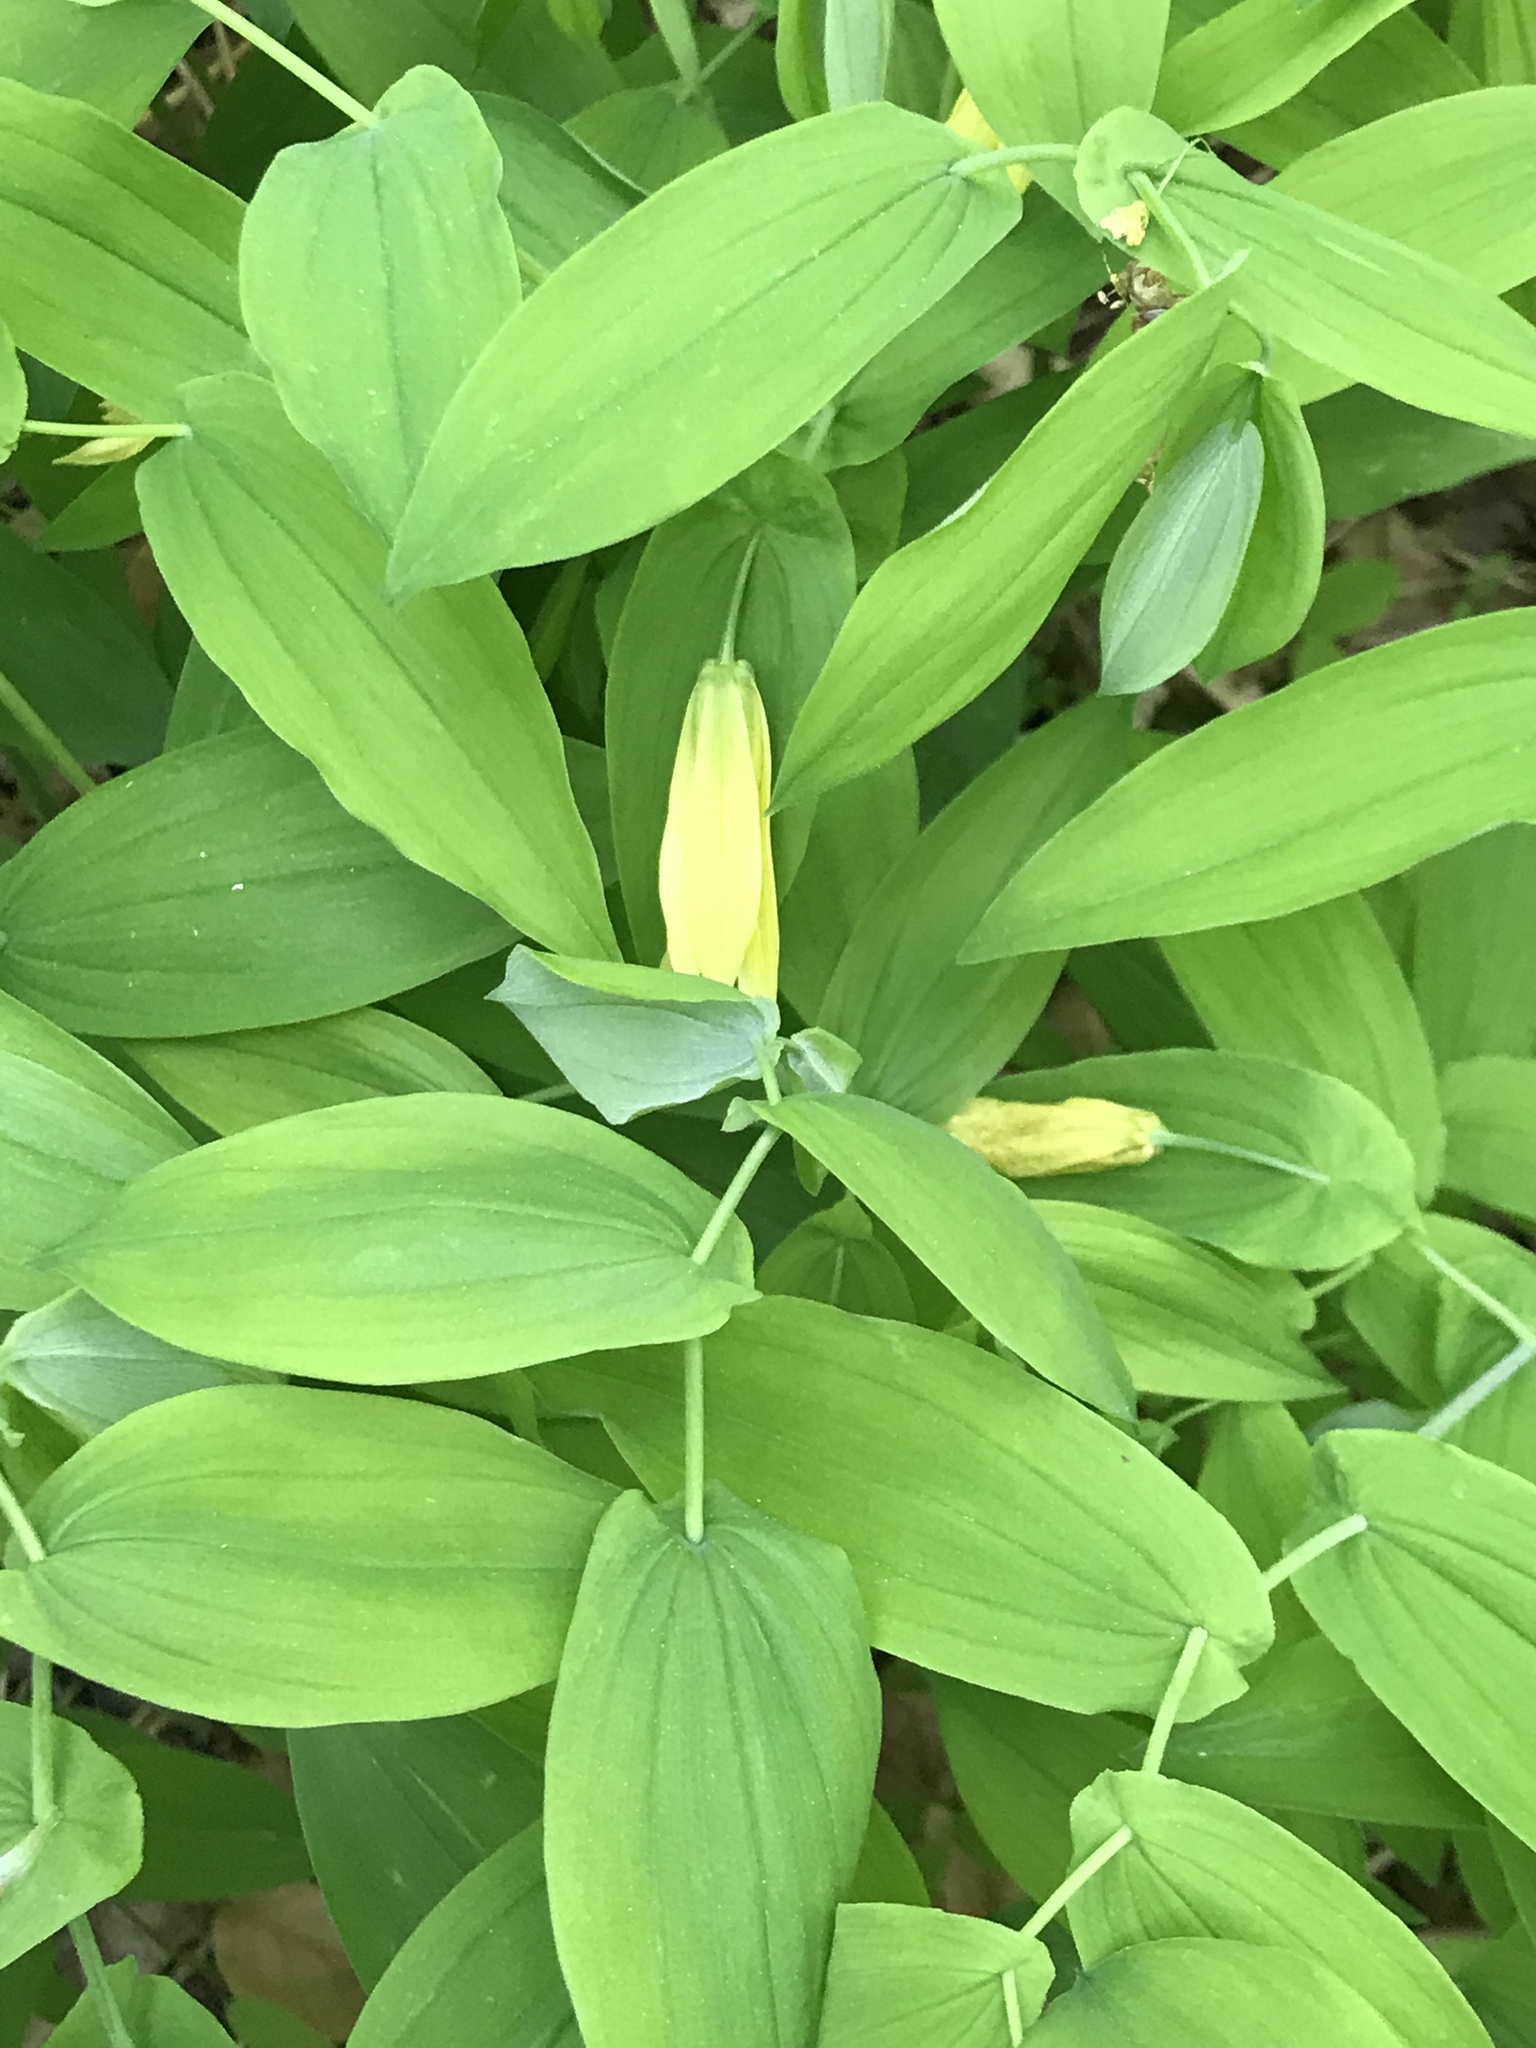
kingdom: Plantae
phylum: Tracheophyta
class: Liliopsida
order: Liliales
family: Colchicaceae
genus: Uvularia
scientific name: Uvularia grandiflora
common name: Bellwort
